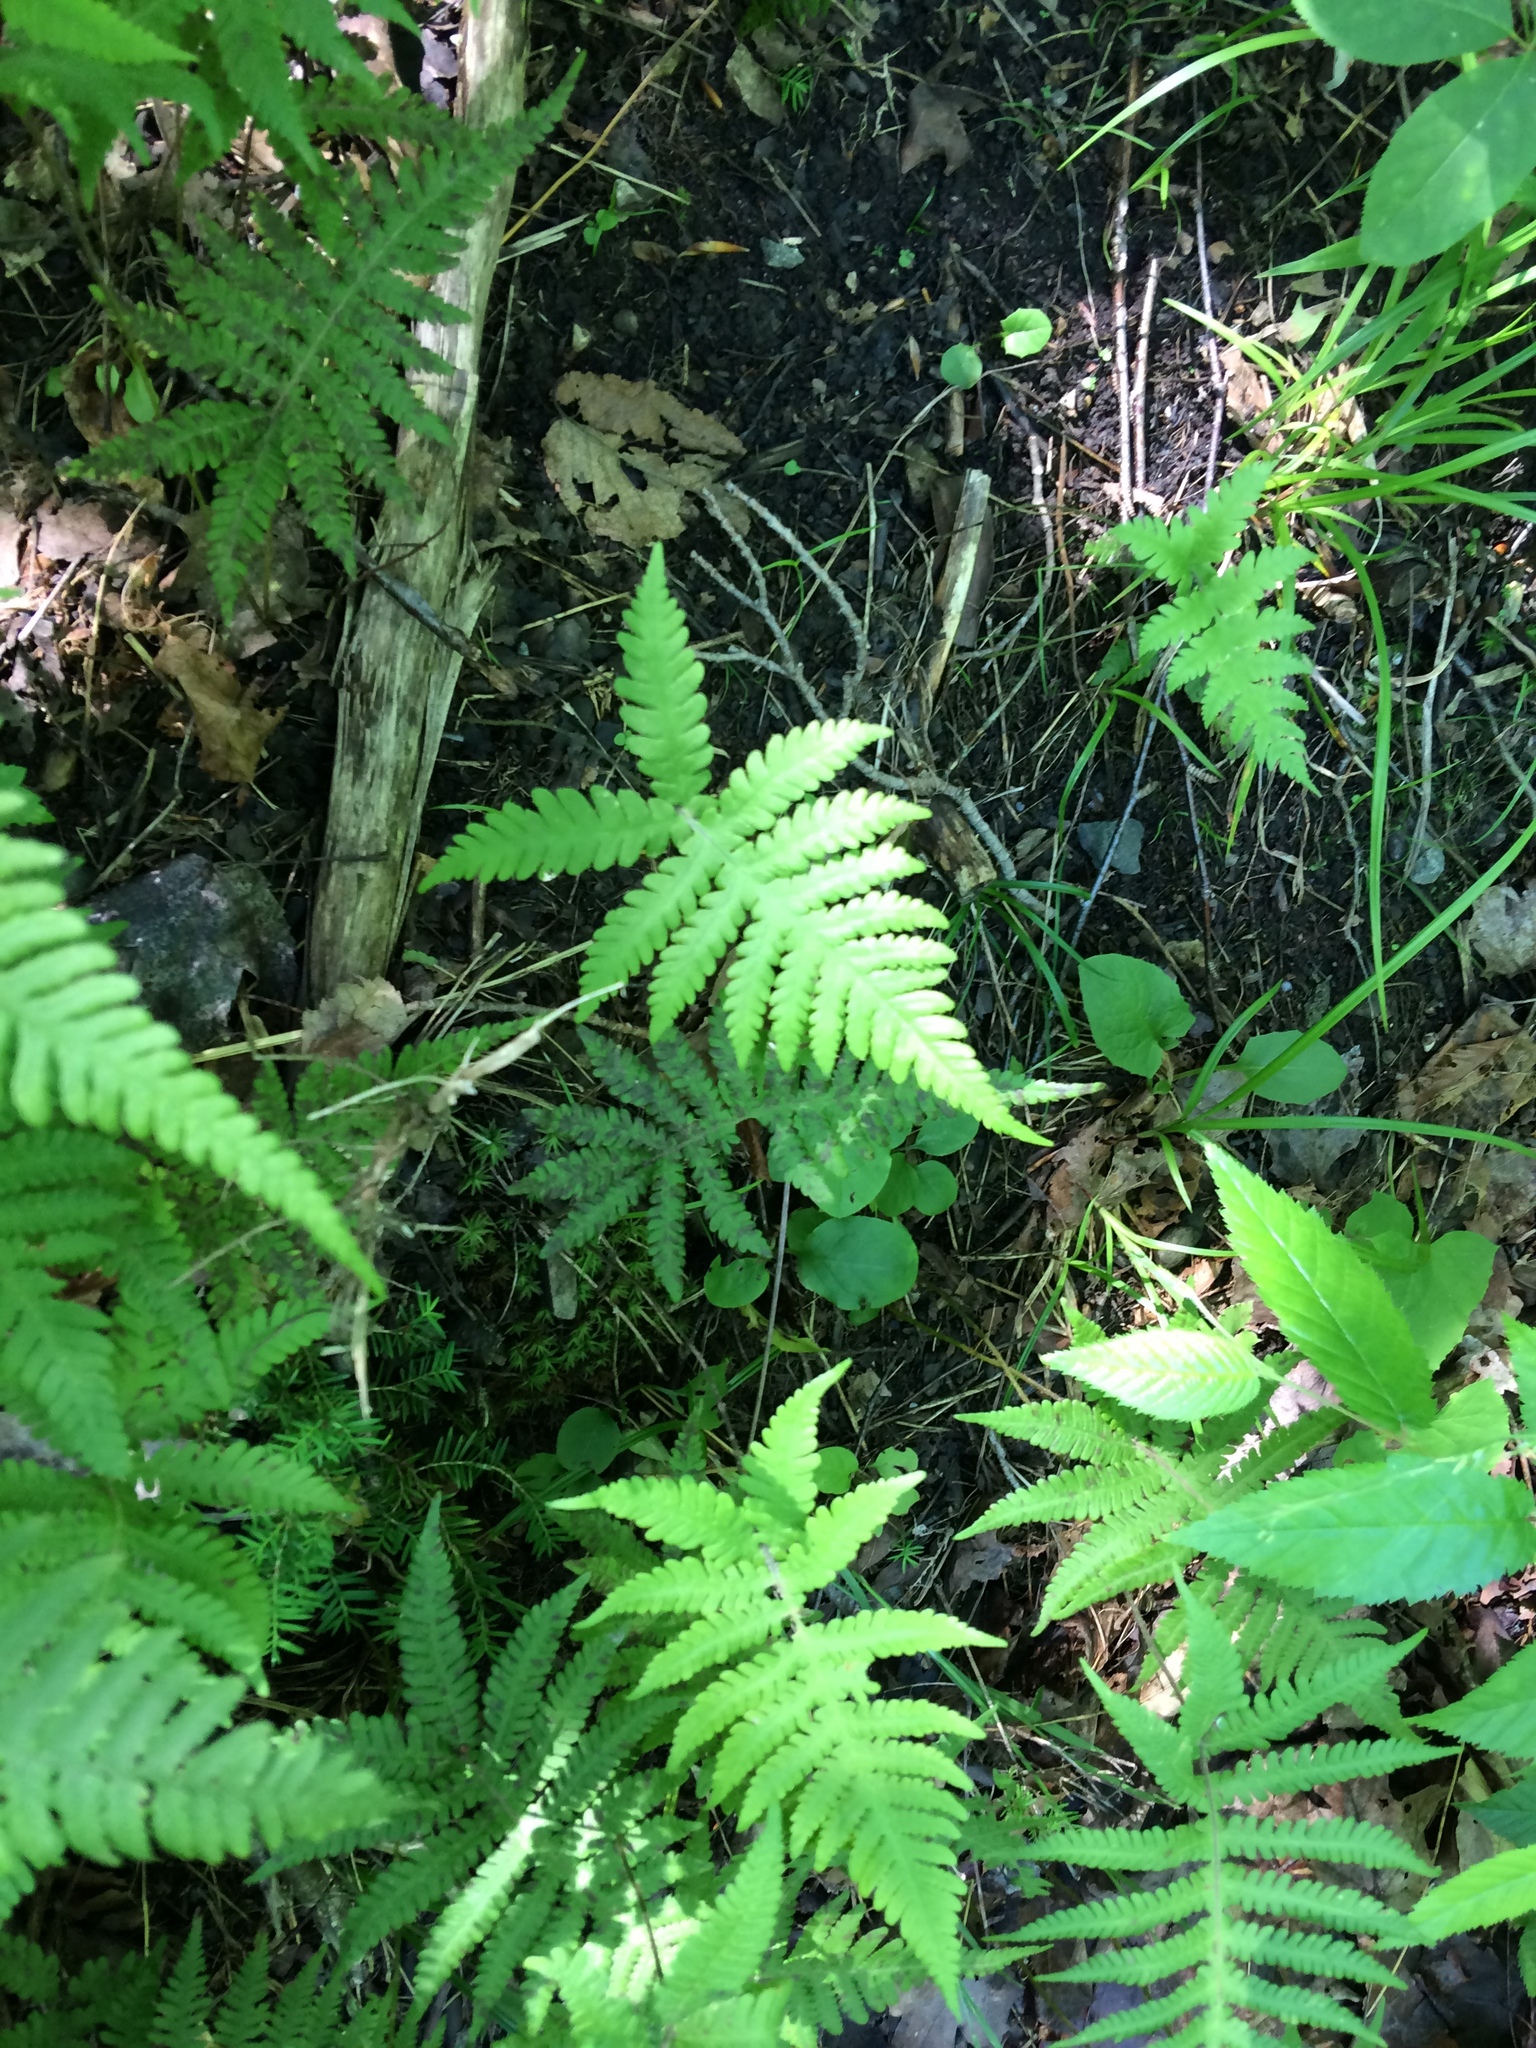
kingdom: Plantae
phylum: Tracheophyta
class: Polypodiopsida
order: Polypodiales
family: Thelypteridaceae
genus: Phegopteris
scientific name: Phegopteris connectilis
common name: Beech fern
